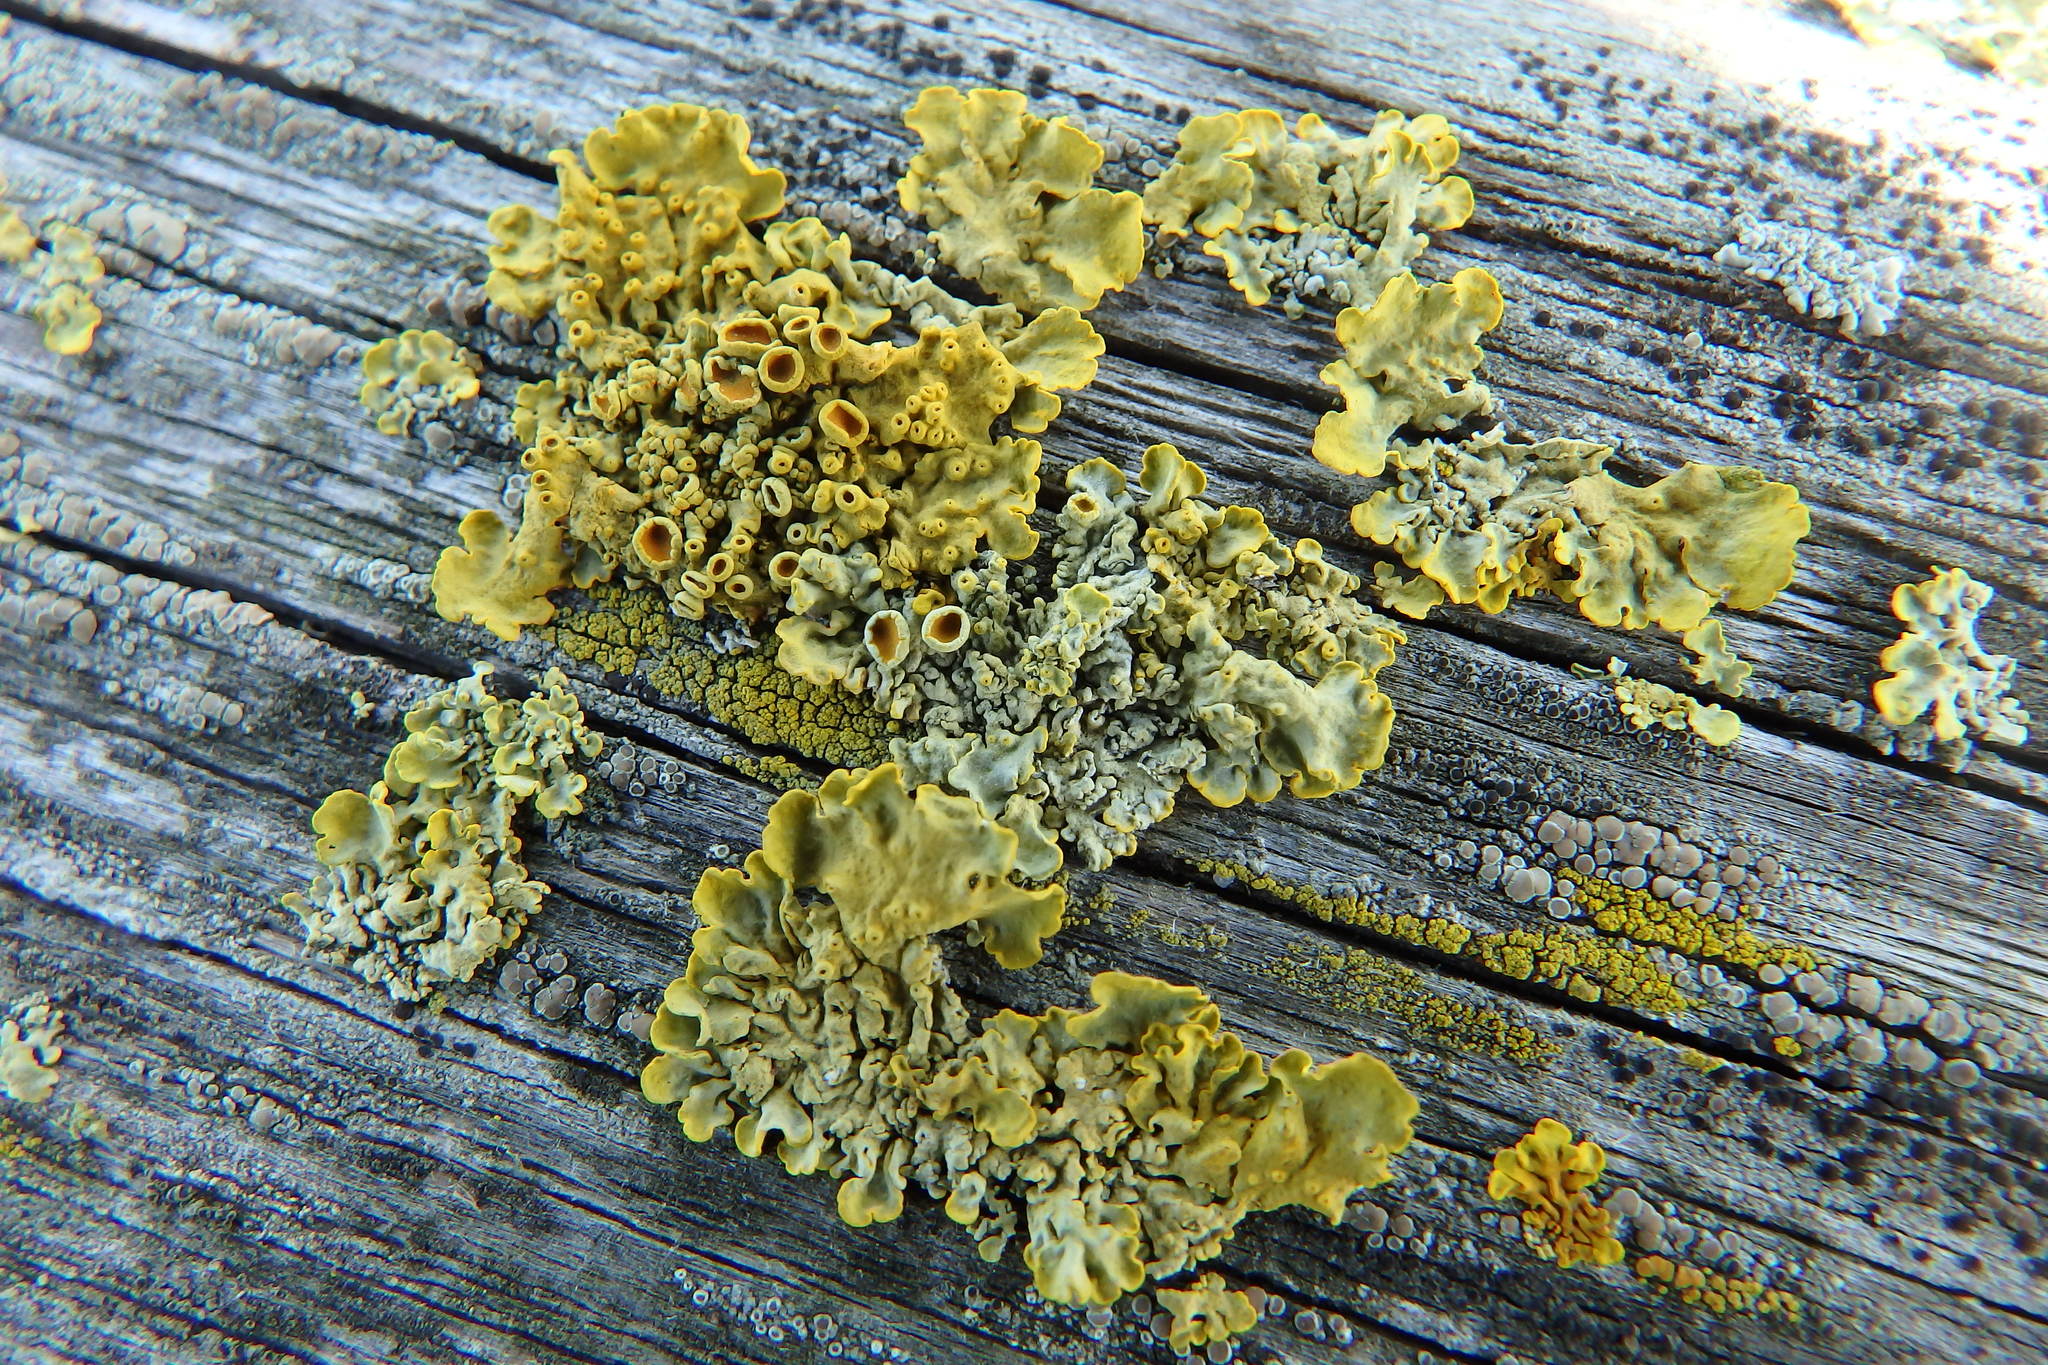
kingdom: Fungi
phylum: Ascomycota
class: Lecanoromycetes
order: Teloschistales
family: Teloschistaceae
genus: Xanthoria
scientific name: Xanthoria parietina
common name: Common orange lichen
